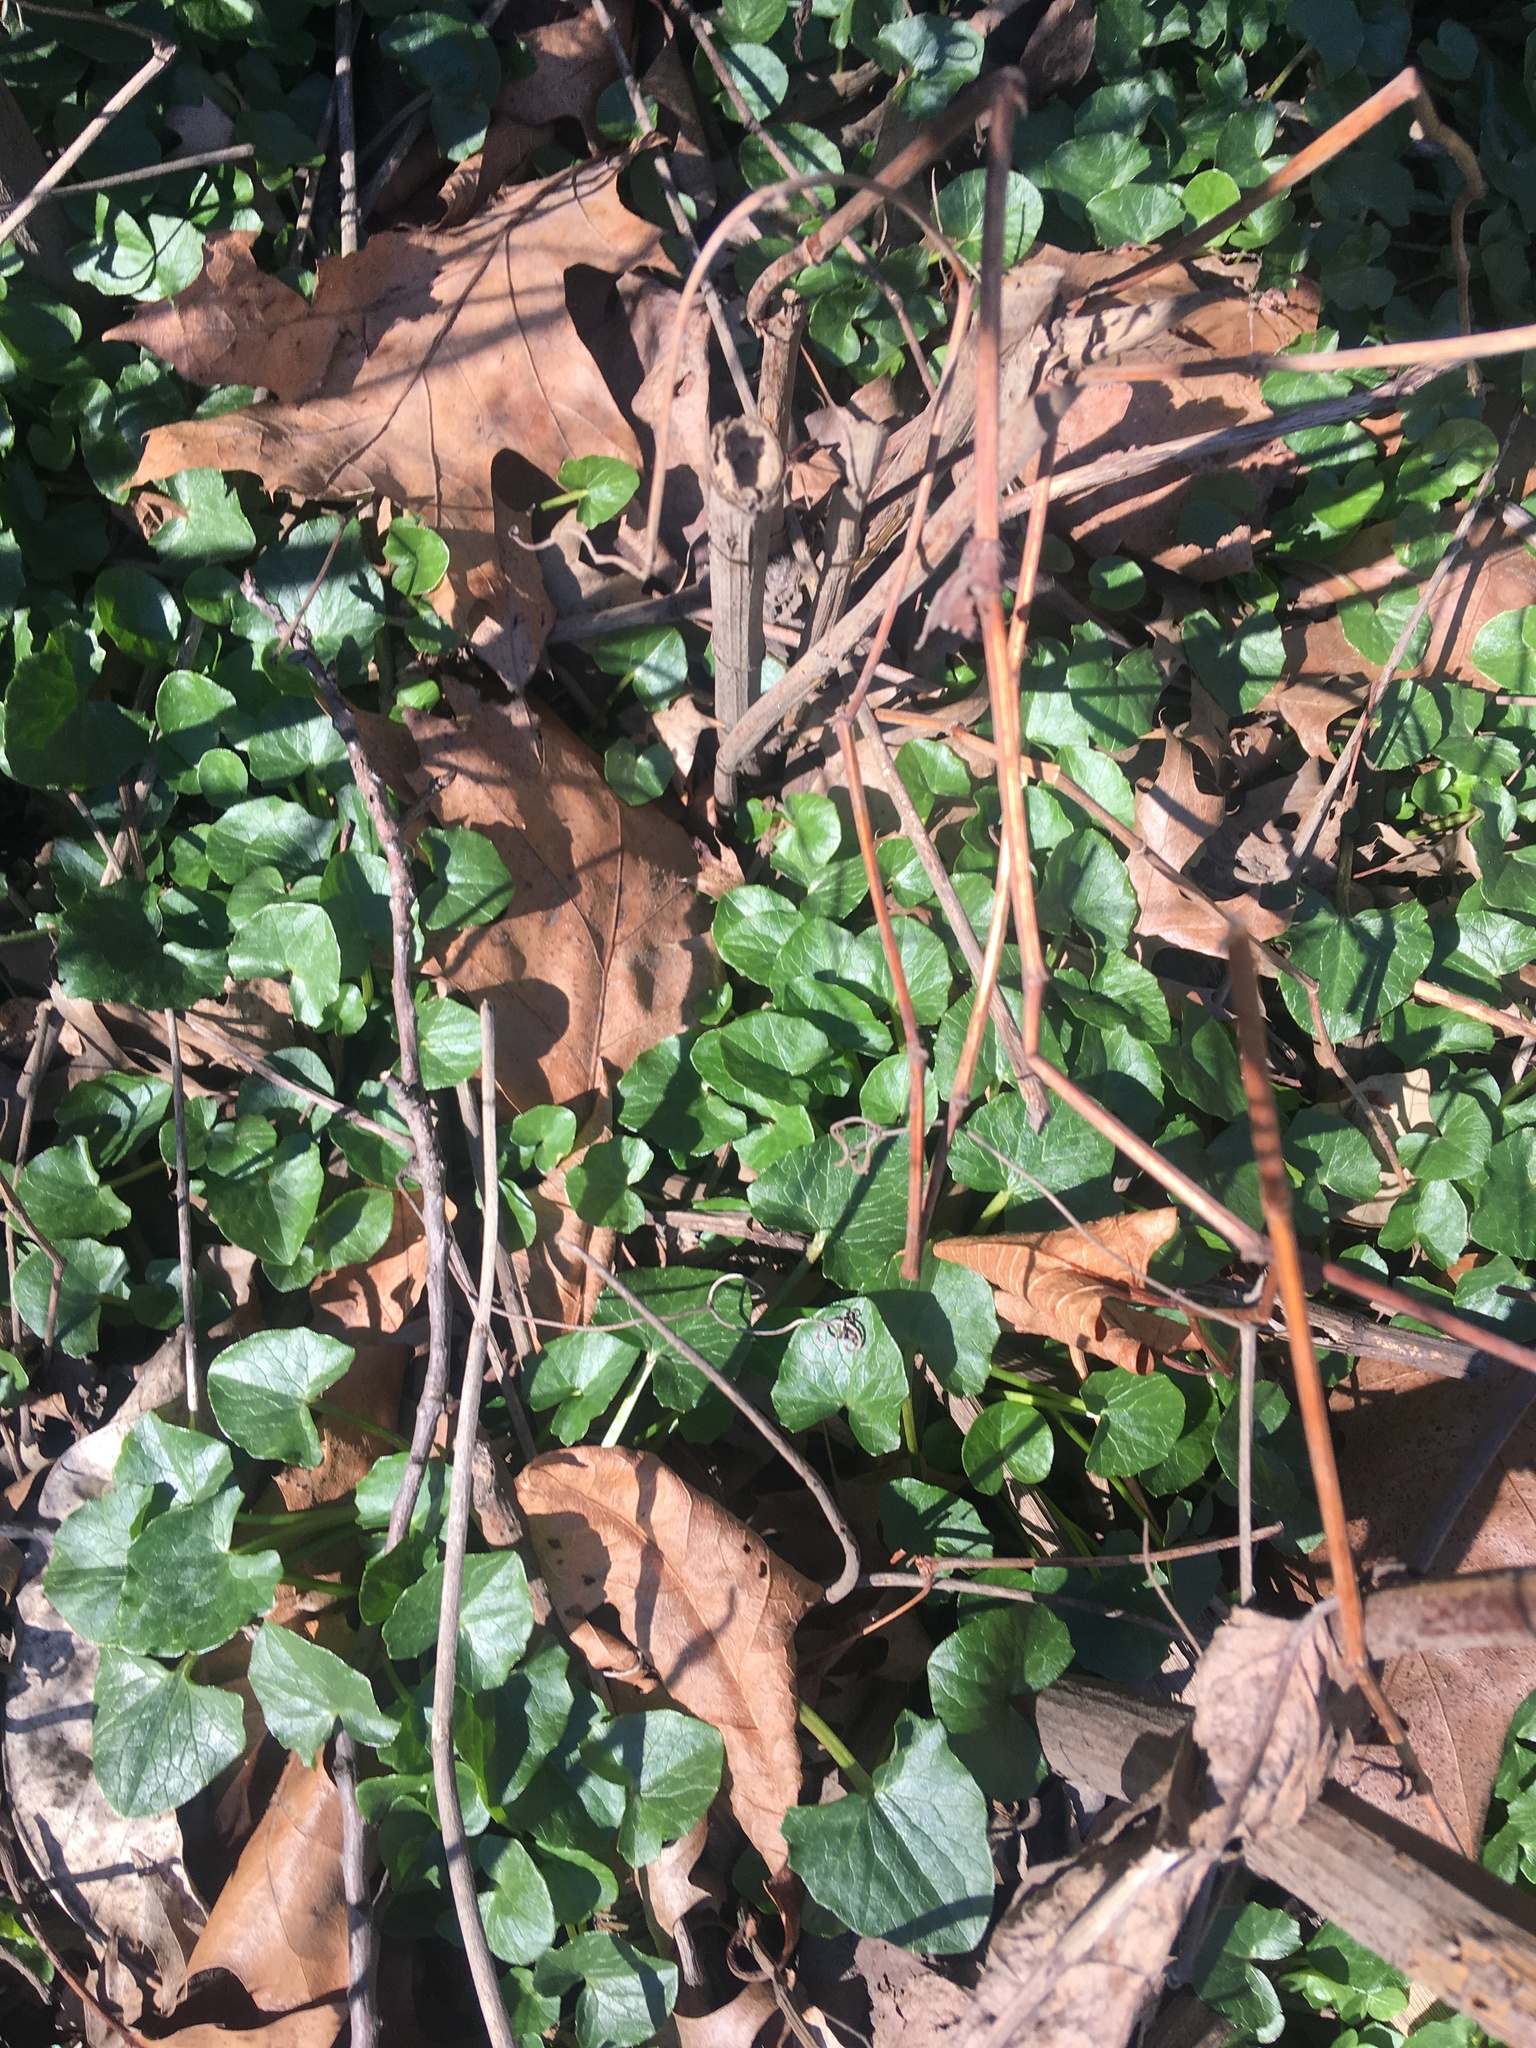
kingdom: Plantae
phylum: Tracheophyta
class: Magnoliopsida
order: Ranunculales
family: Ranunculaceae
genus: Ficaria
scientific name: Ficaria verna
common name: Lesser celandine
